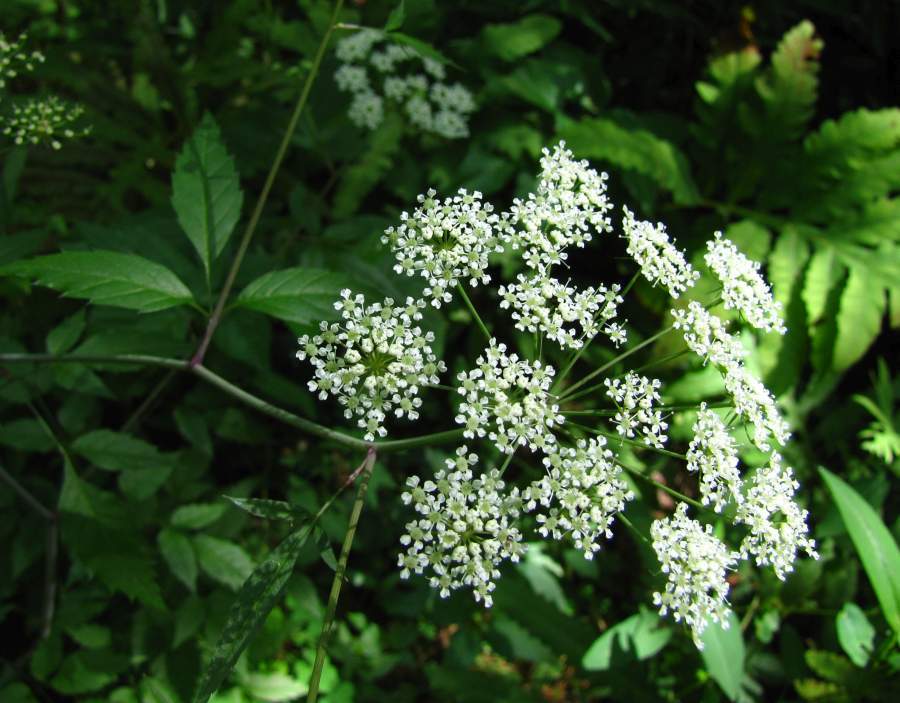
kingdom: Plantae
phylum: Tracheophyta
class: Magnoliopsida
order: Apiales
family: Apiaceae
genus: Cicuta
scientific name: Cicuta maculata
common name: Spotted cowbane
